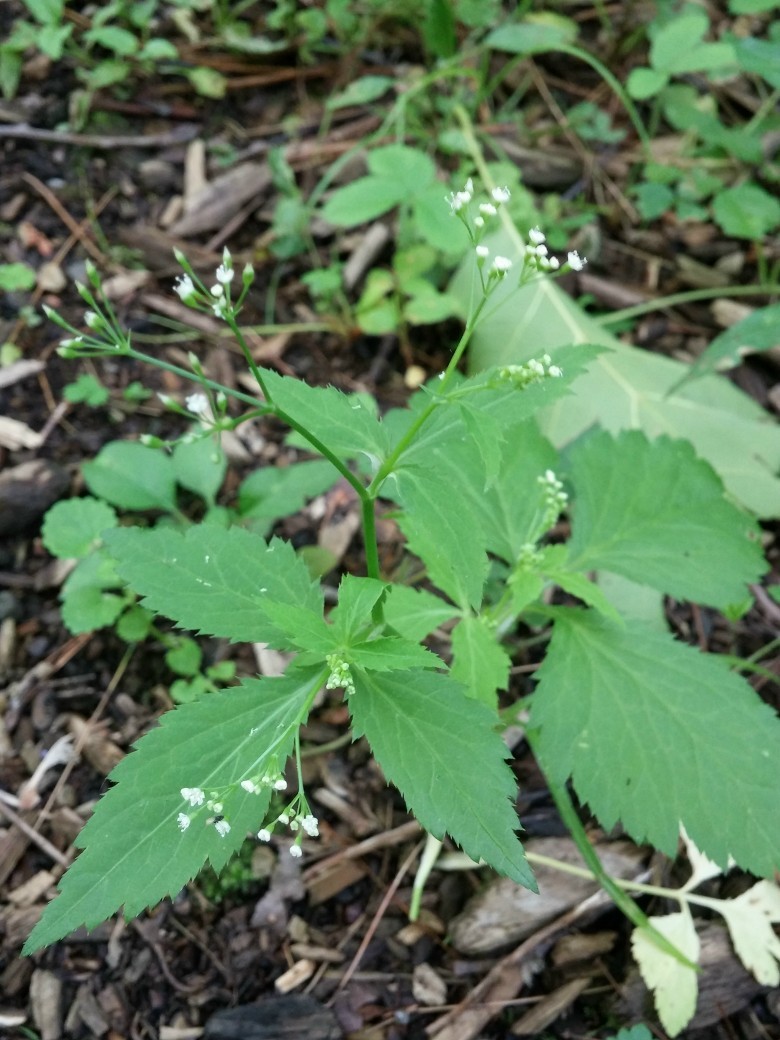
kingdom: Plantae
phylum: Tracheophyta
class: Magnoliopsida
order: Apiales
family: Apiaceae
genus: Cryptotaenia
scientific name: Cryptotaenia canadensis
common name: Honewort
